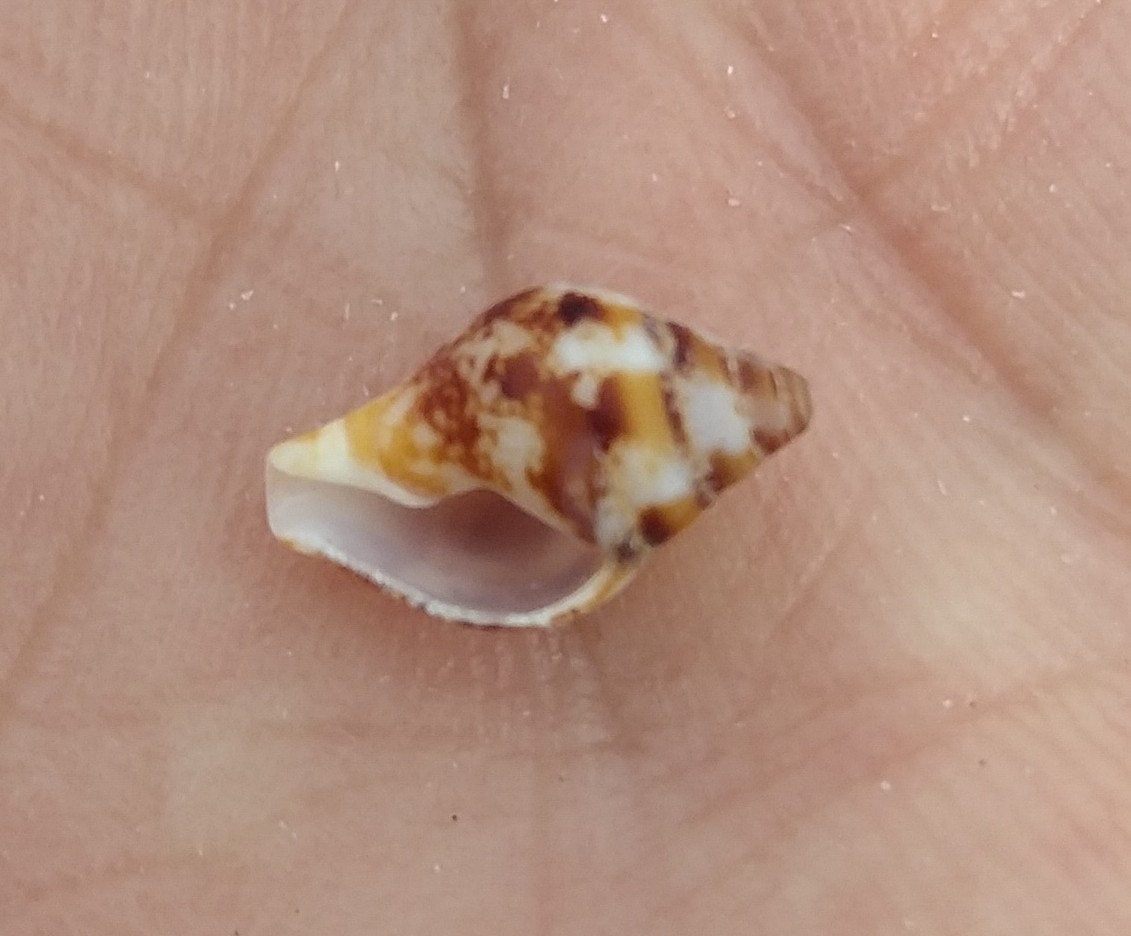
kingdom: Animalia
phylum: Mollusca
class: Gastropoda
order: Neogastropoda
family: Columbellidae
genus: Columbella
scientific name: Columbella rustica
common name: Rustic dove shell
